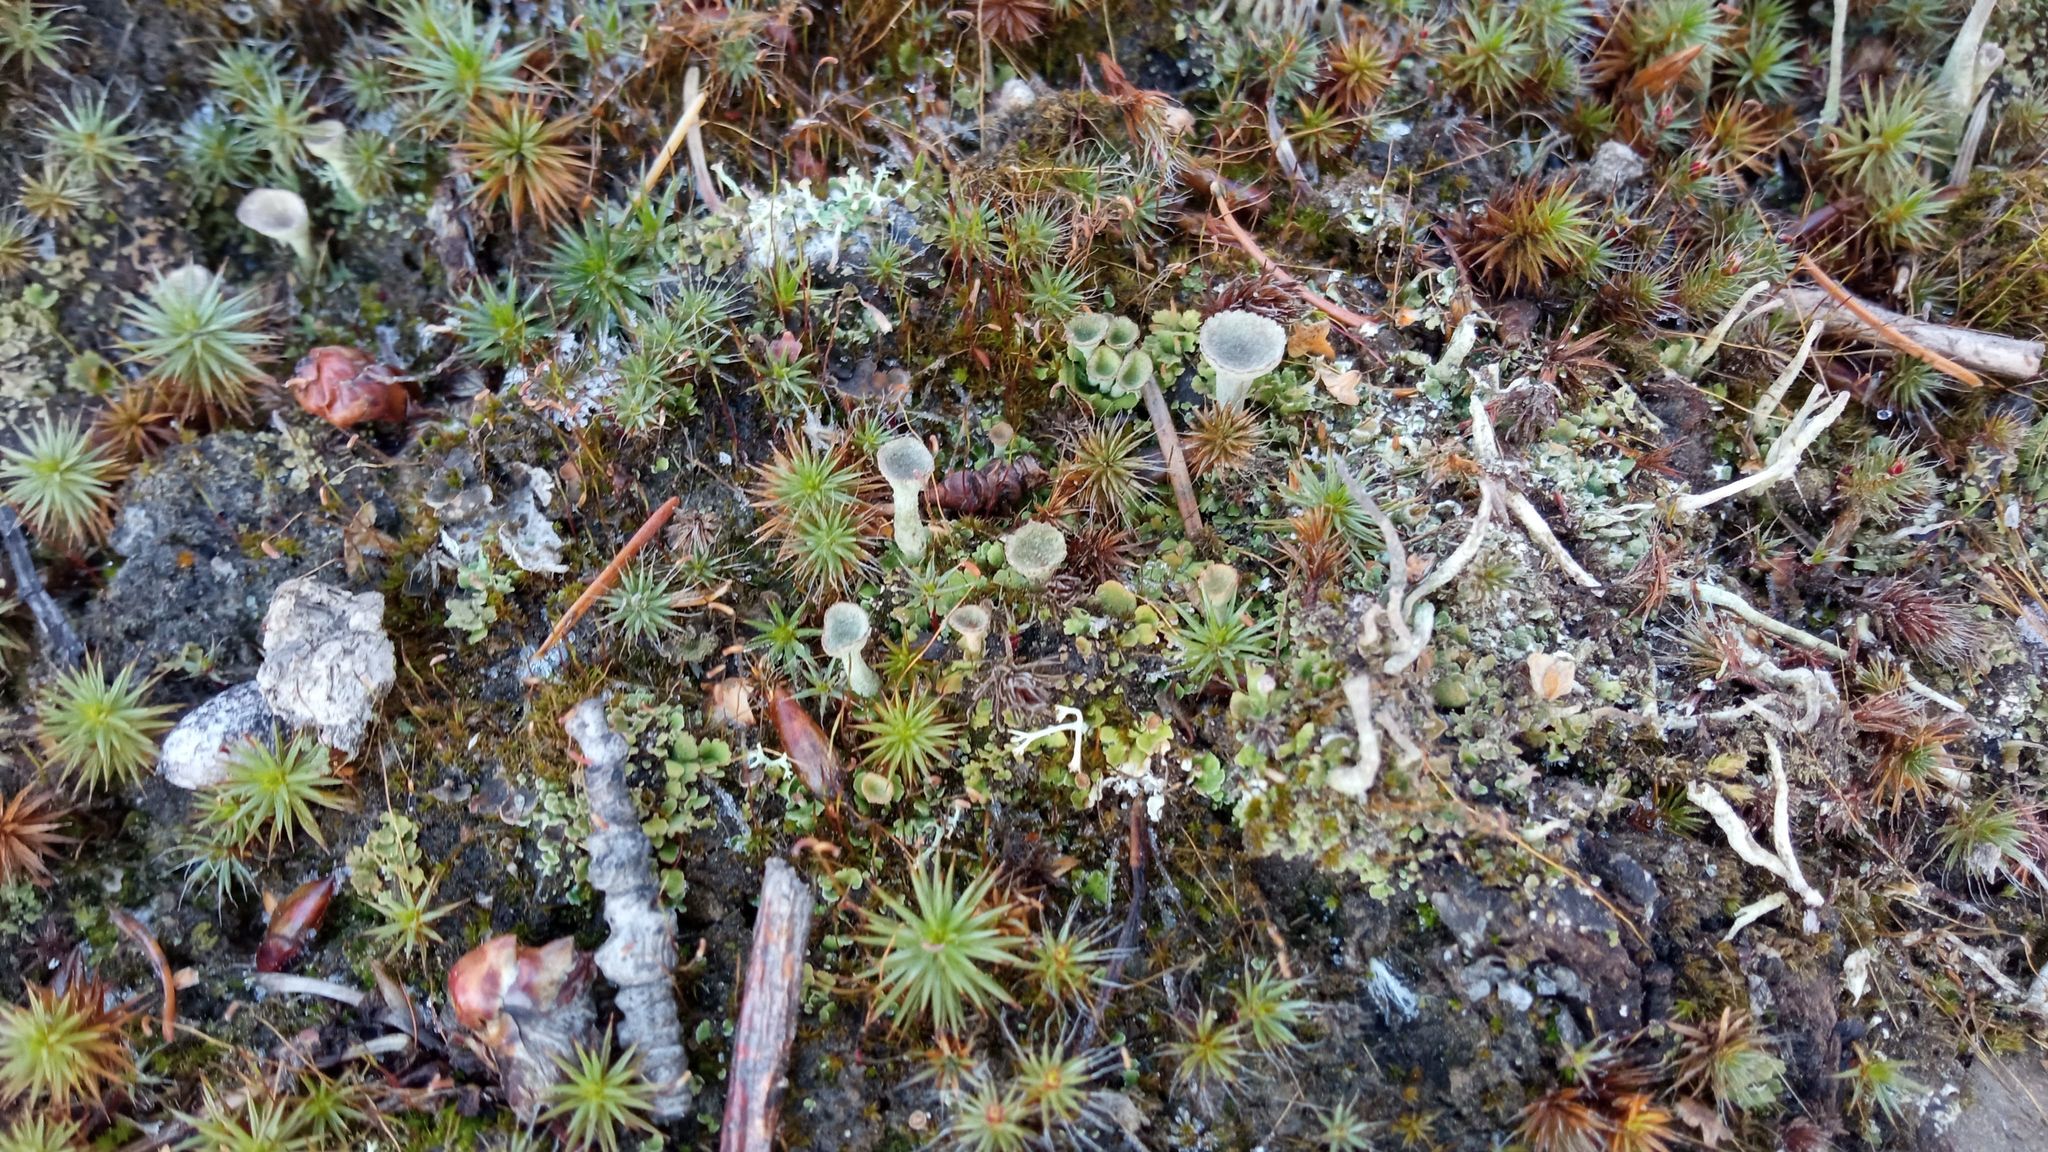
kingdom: Fungi
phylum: Ascomycota
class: Lecanoromycetes
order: Lecanorales
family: Cladoniaceae
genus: Cladonia
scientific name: Cladonia fimbriata
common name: Powdered trumpet lichen
